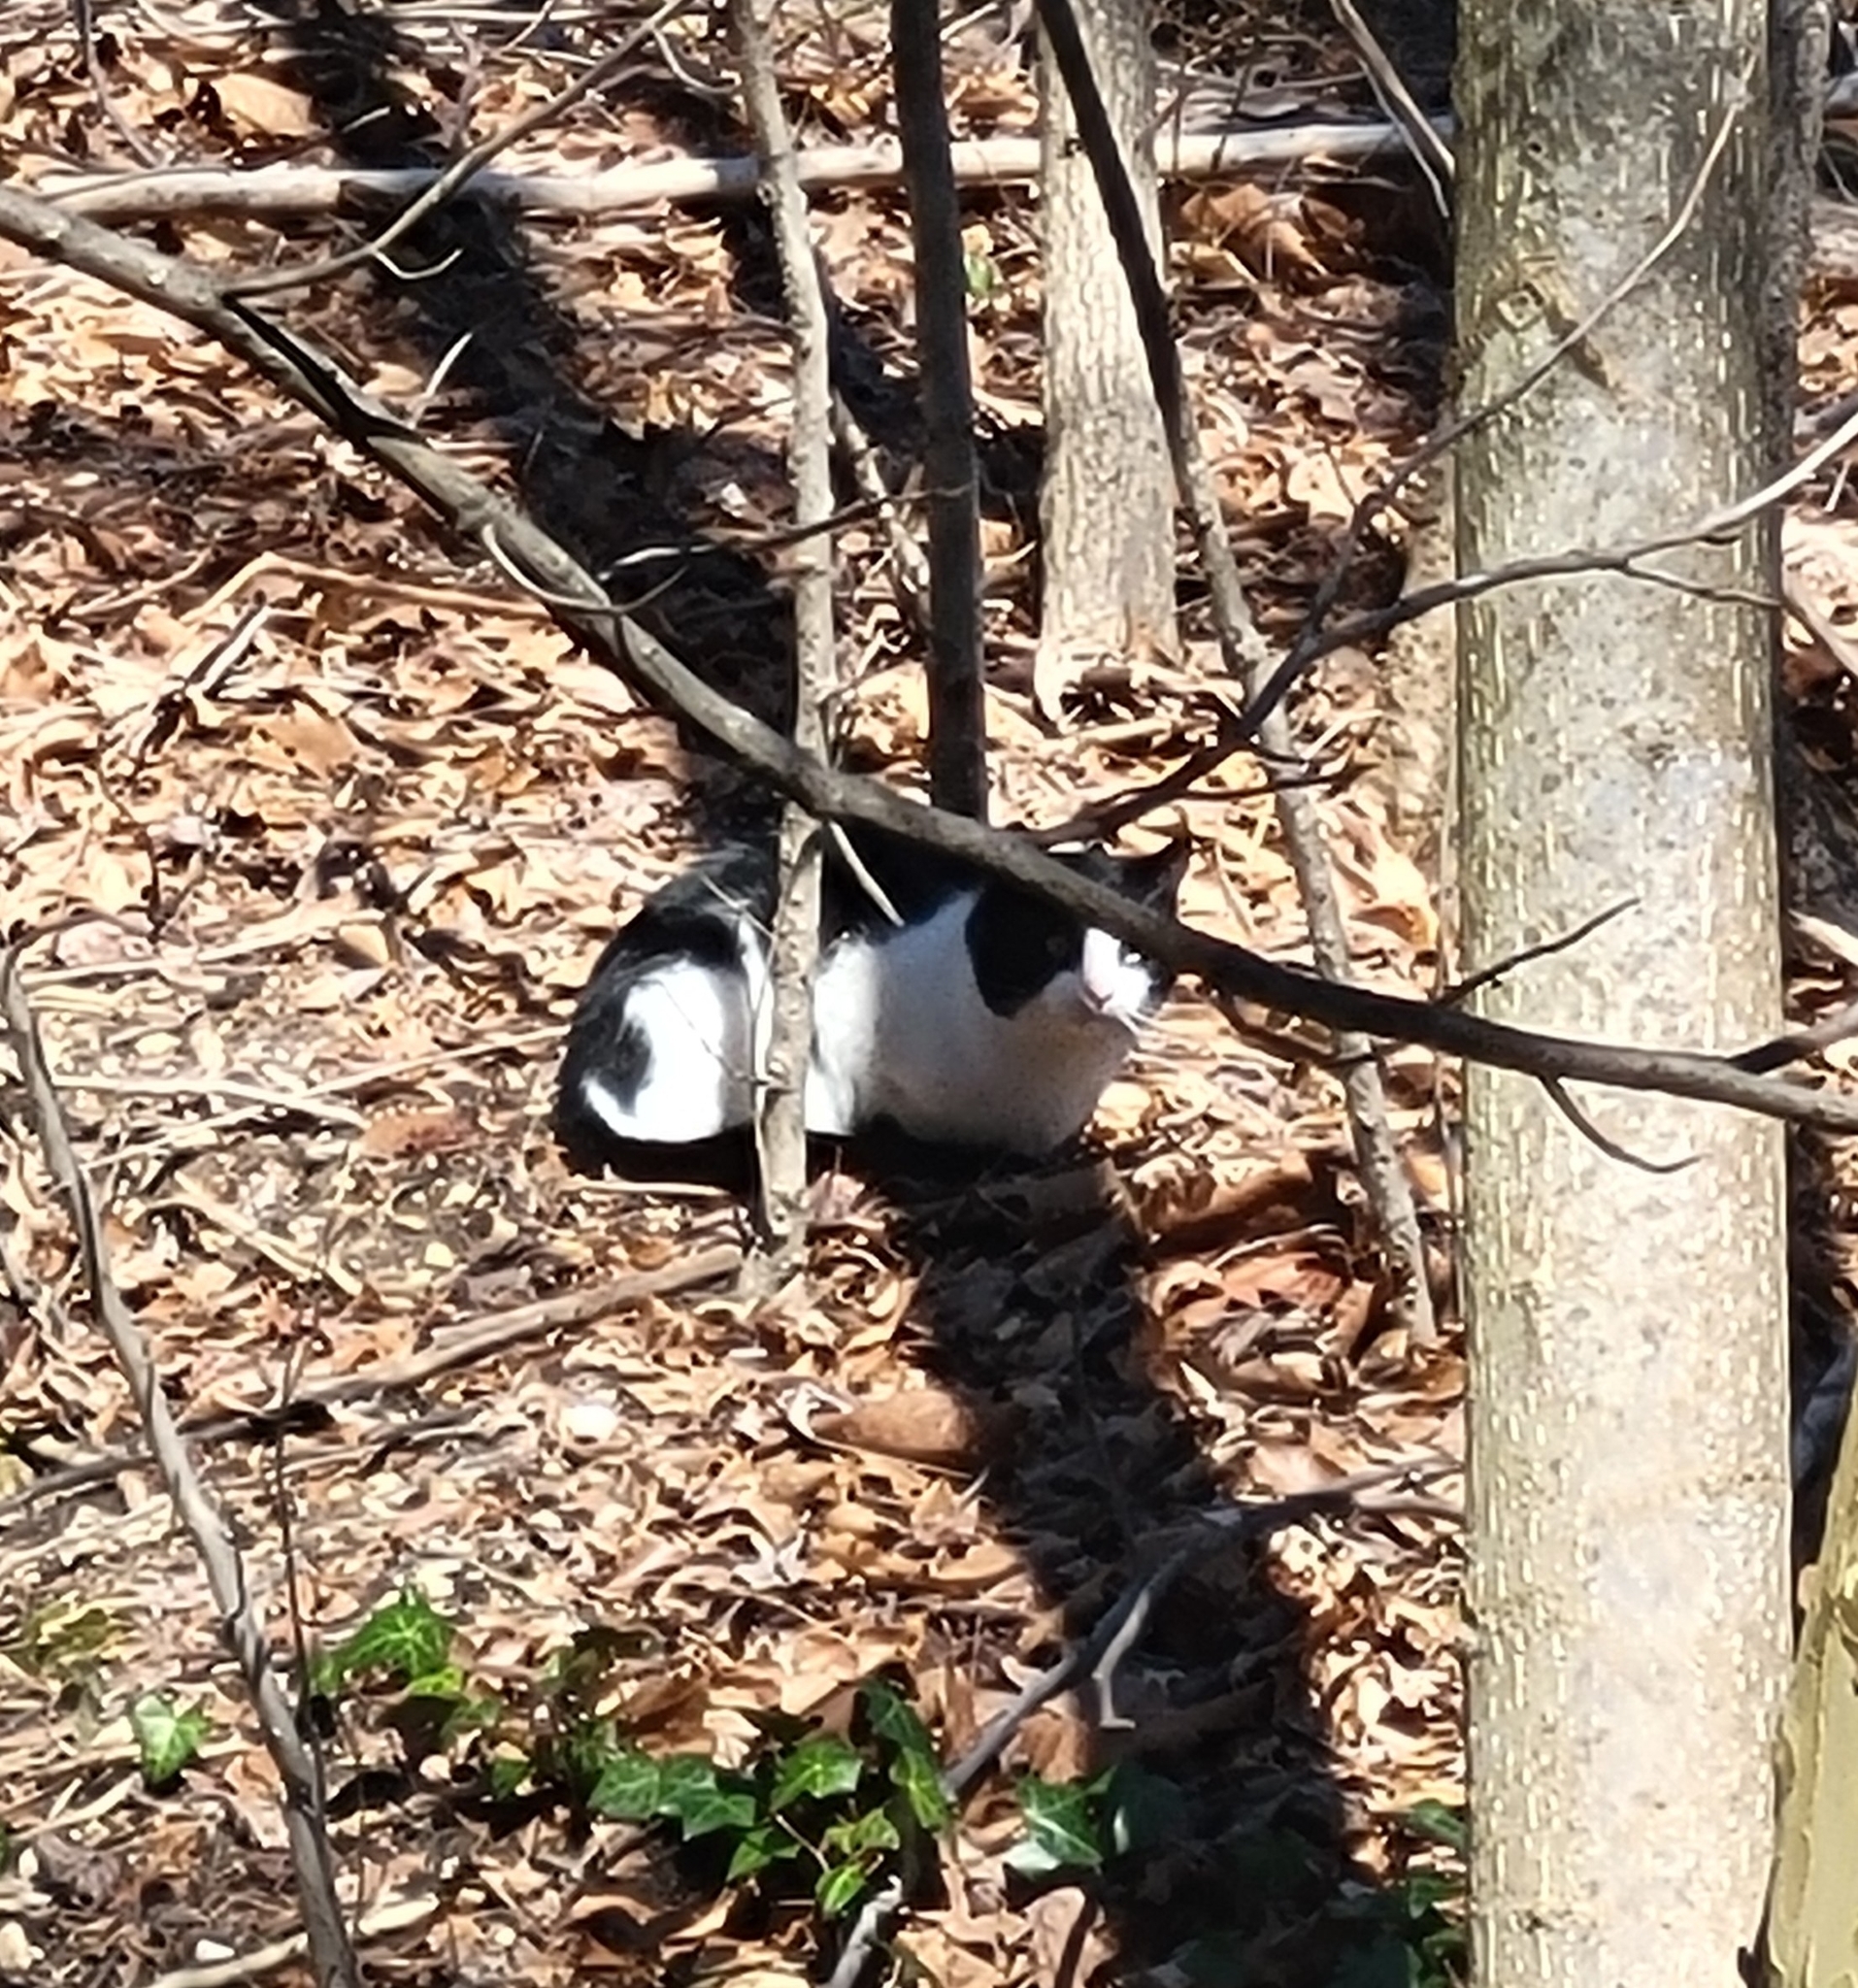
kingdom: Animalia
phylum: Chordata
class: Mammalia
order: Carnivora
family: Felidae
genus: Felis
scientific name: Felis catus
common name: Domestic cat
